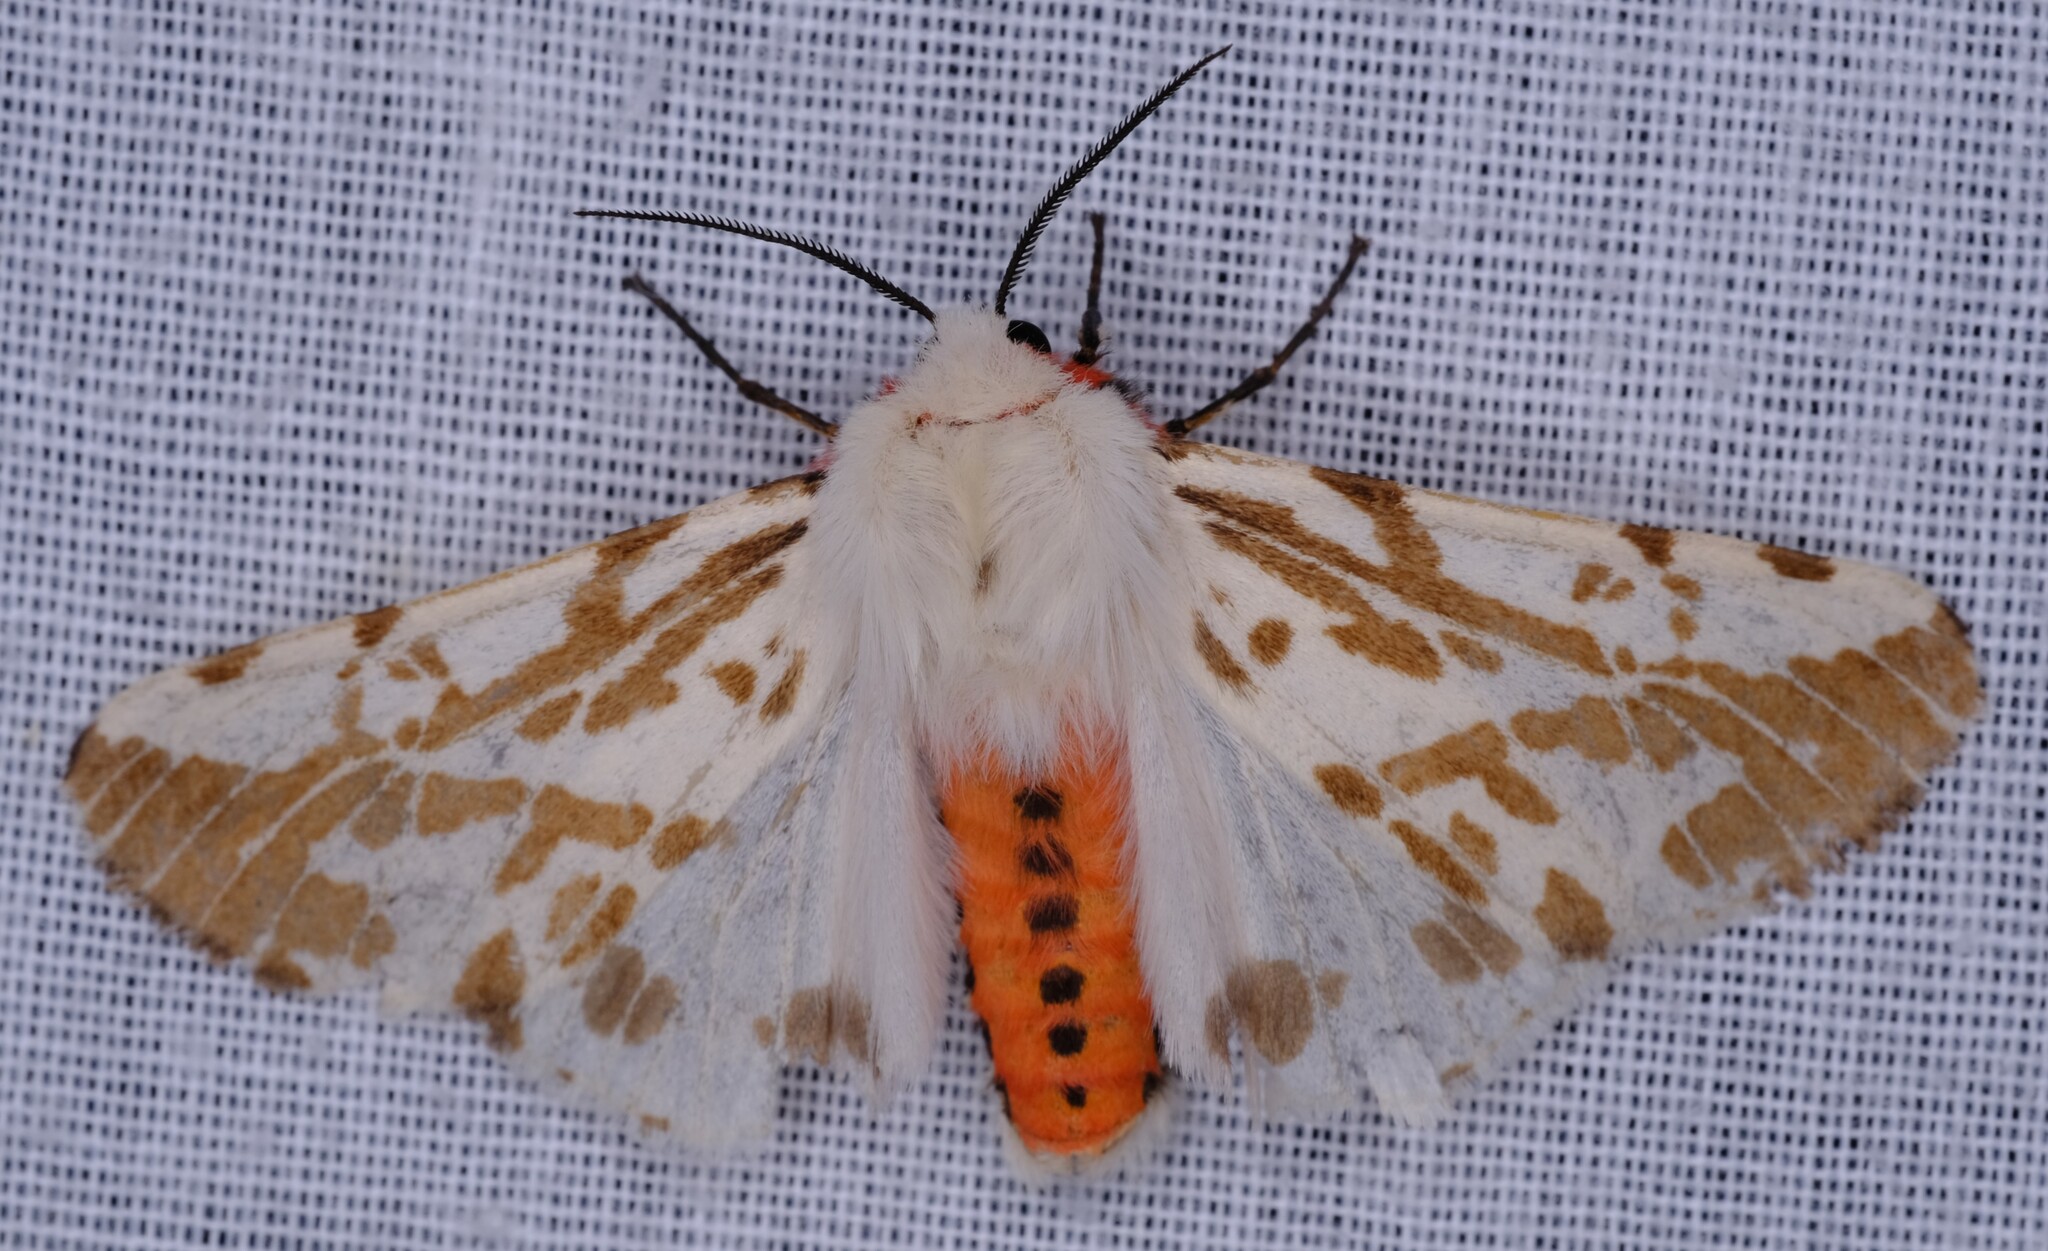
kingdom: Animalia
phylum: Arthropoda
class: Insecta
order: Lepidoptera
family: Erebidae
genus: Ardices
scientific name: Ardices canescens
